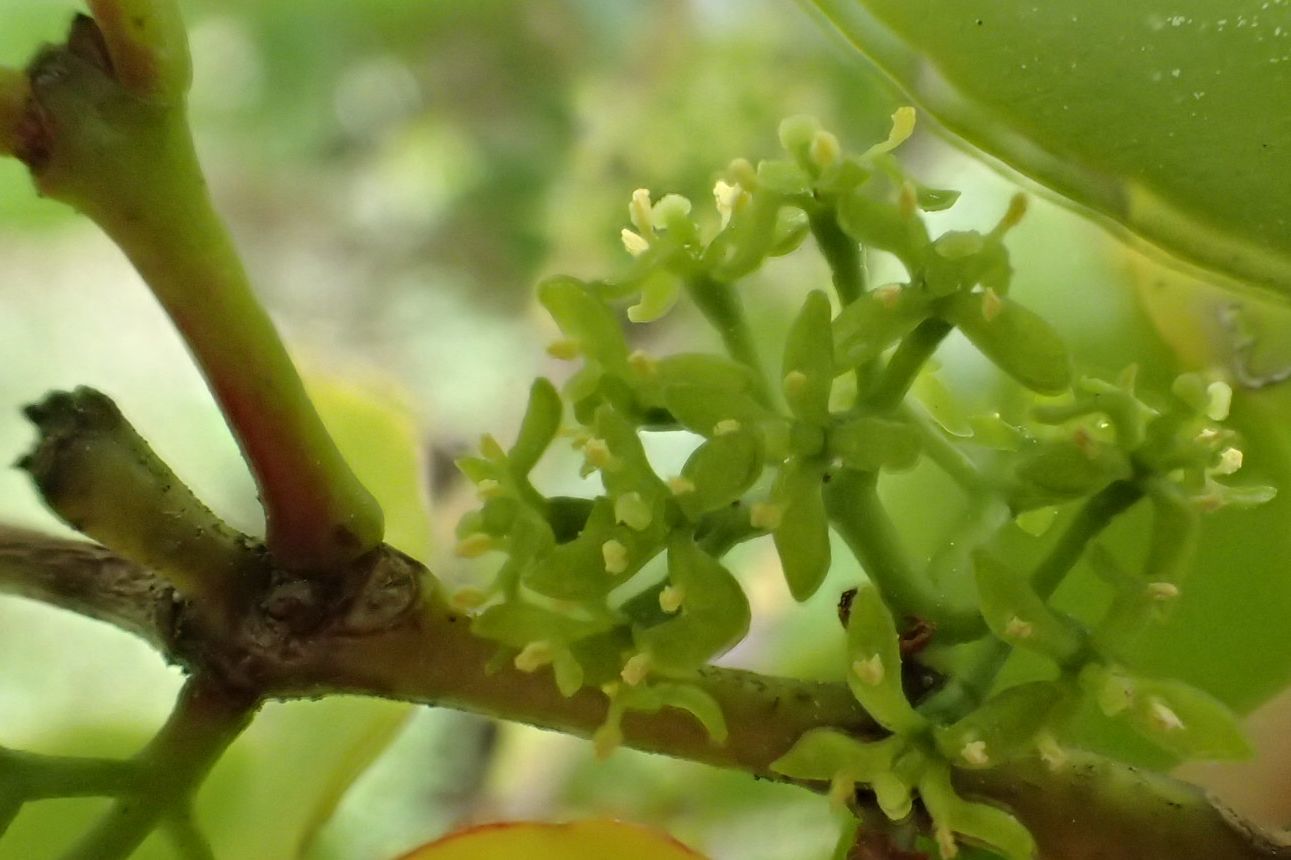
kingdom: Plantae
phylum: Tracheophyta
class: Magnoliopsida
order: Santalales
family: Loranthaceae
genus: Ileostylus
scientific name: Ileostylus micranthus
